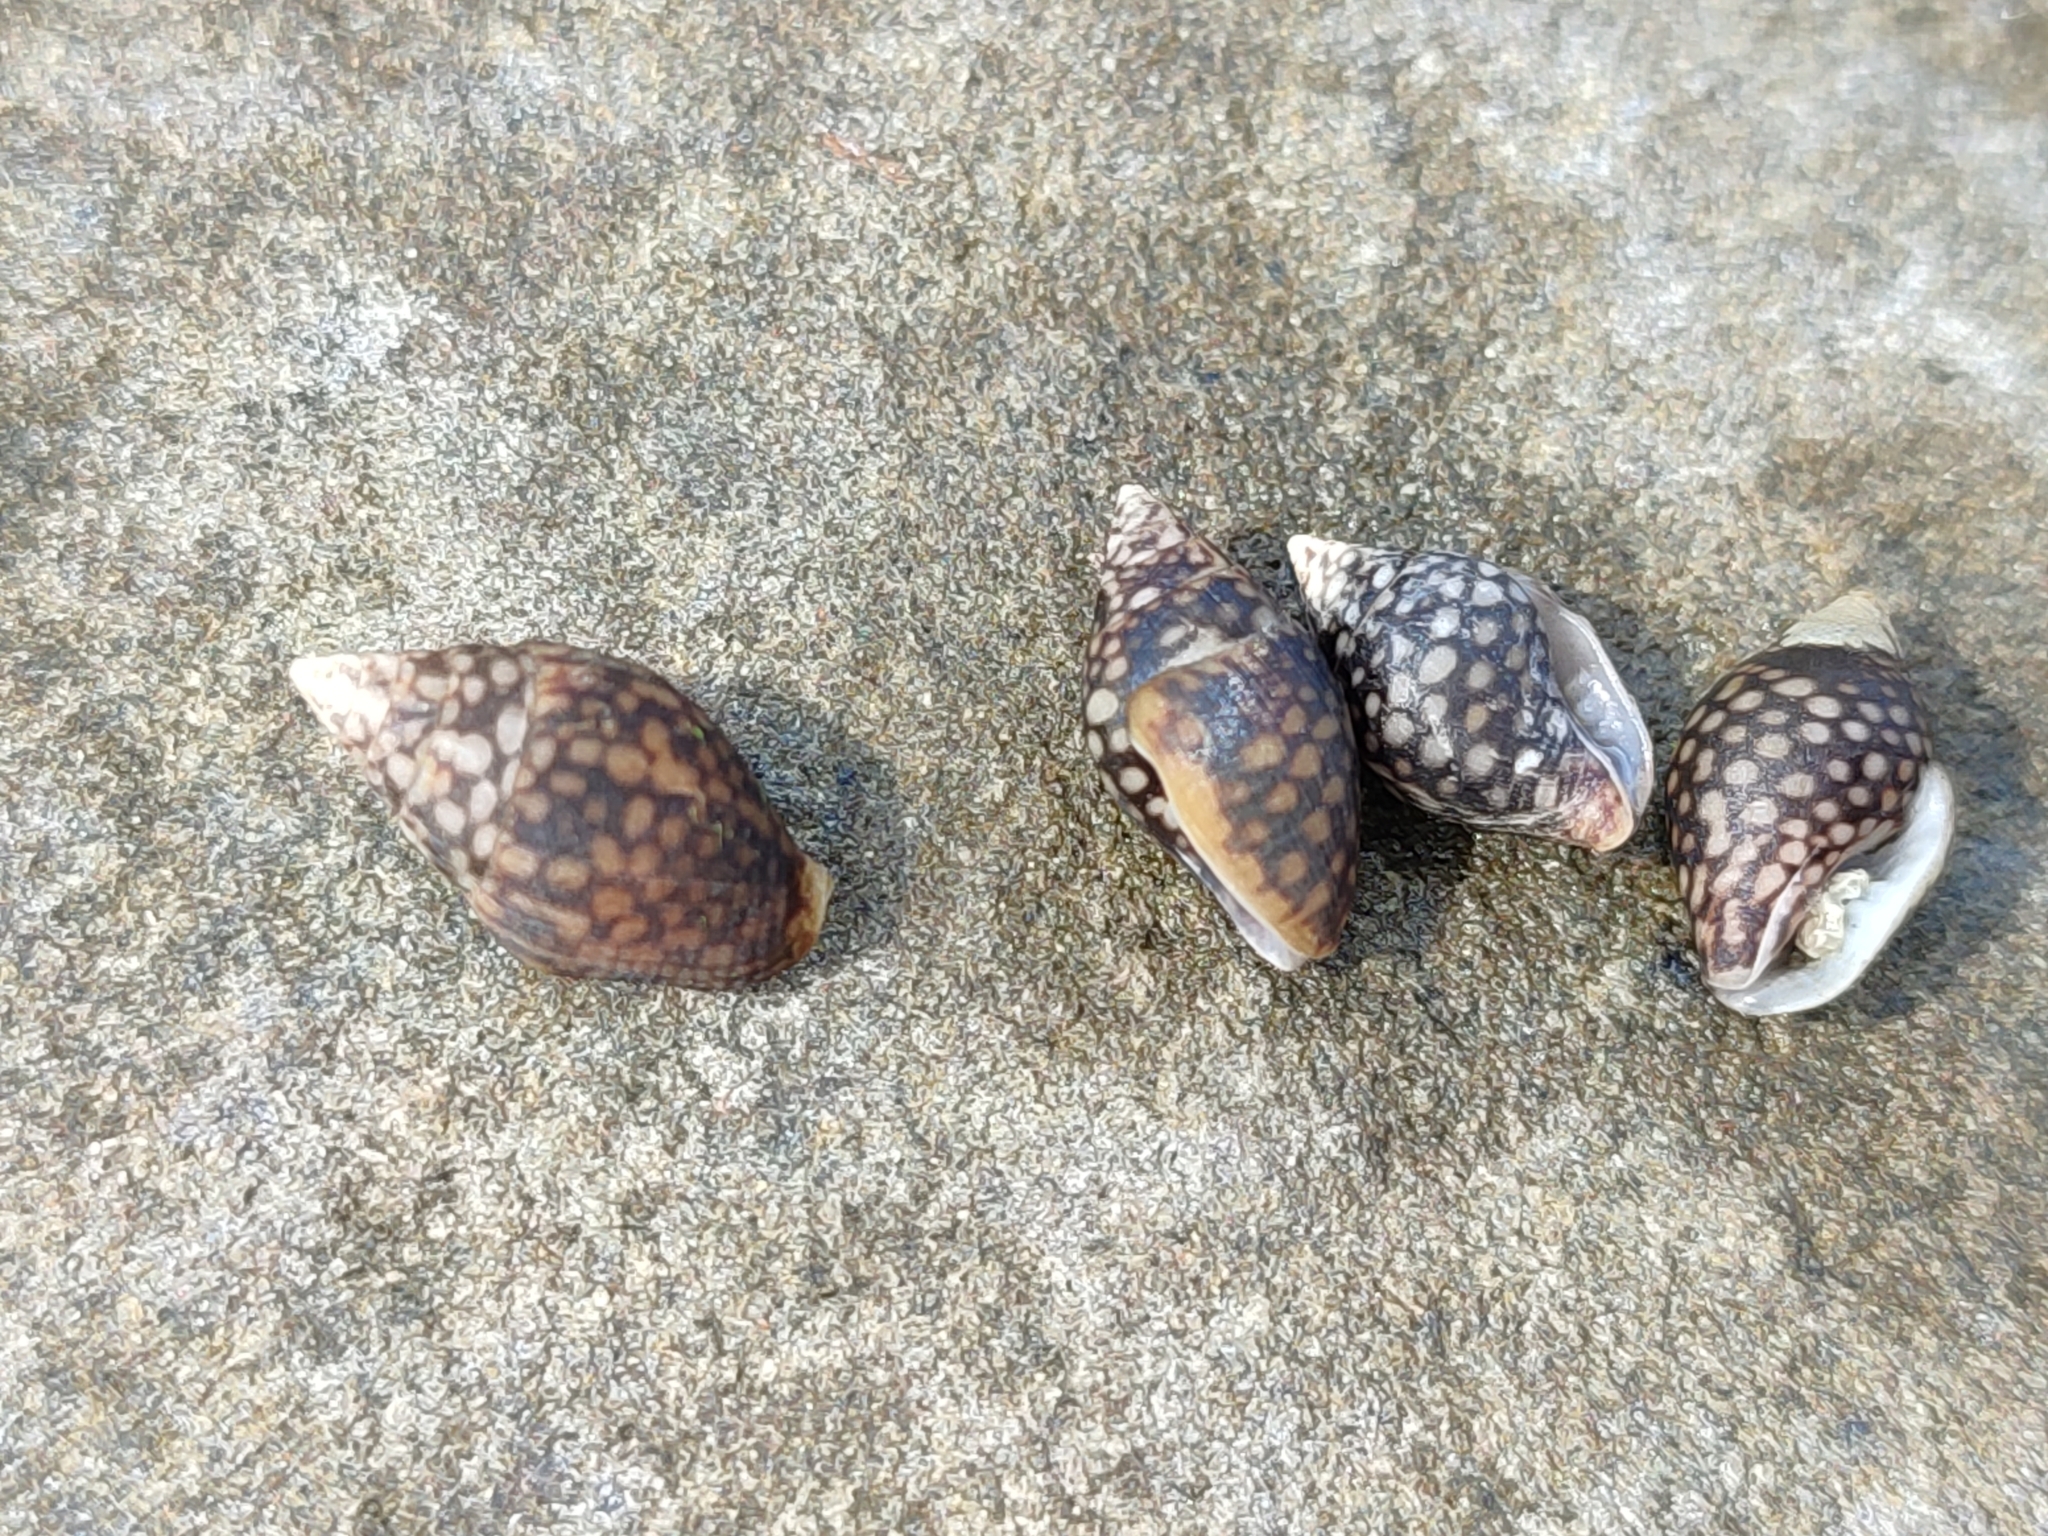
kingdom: Animalia
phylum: Mollusca
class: Gastropoda
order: Neogastropoda
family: Columbellidae
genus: Pardalinops de
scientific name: Pardalinops de Pardalinops testudinaria
